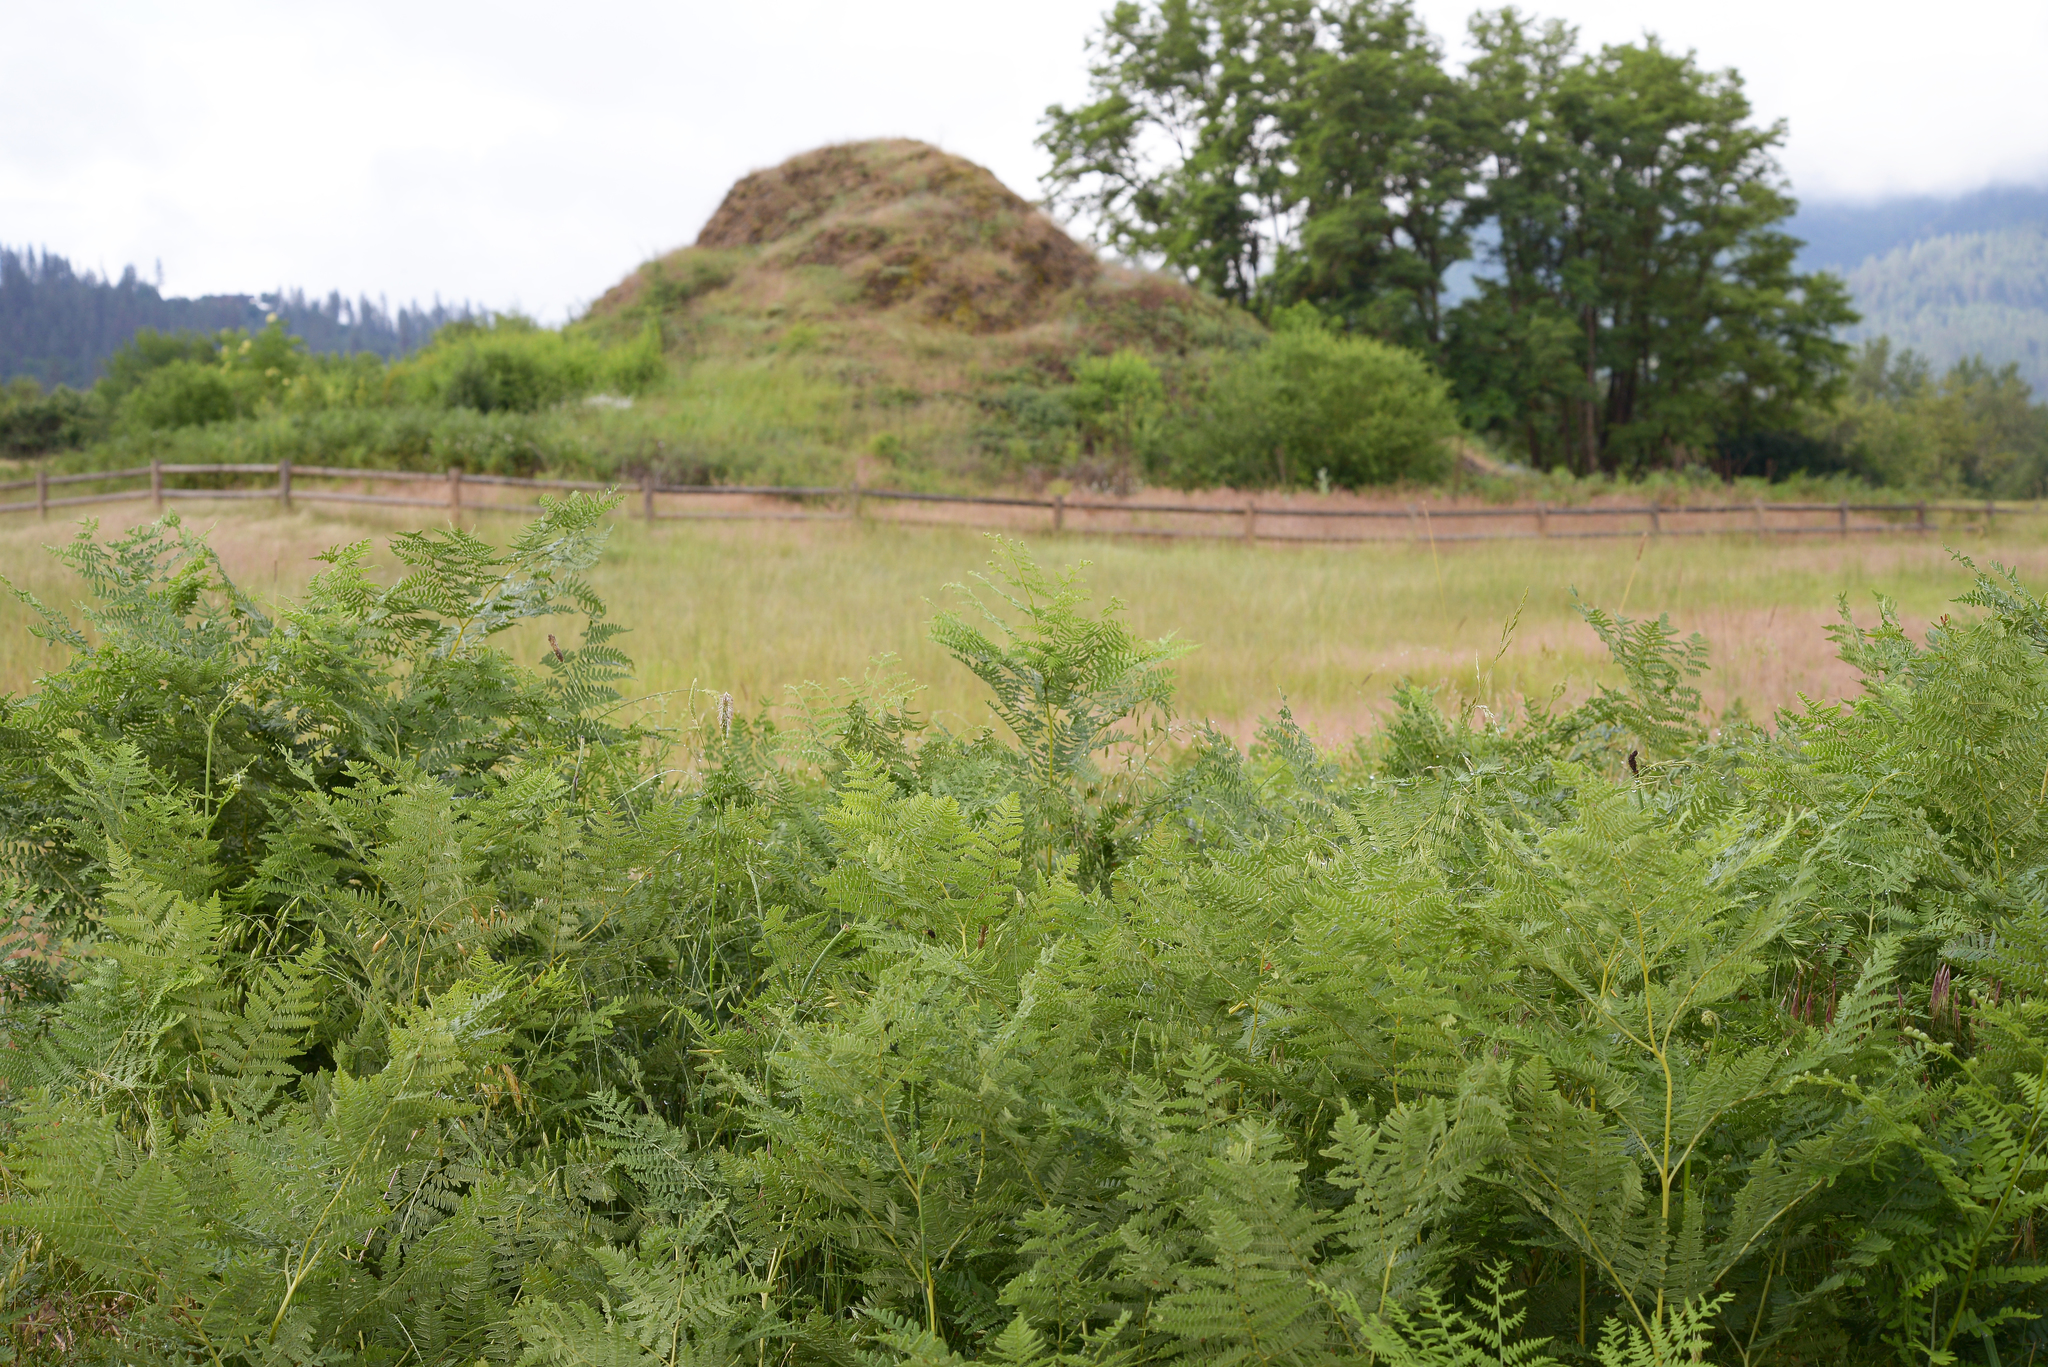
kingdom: Plantae
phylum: Tracheophyta
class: Polypodiopsida
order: Polypodiales
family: Dennstaedtiaceae
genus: Pteridium
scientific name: Pteridium aquilinum
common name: Bracken
